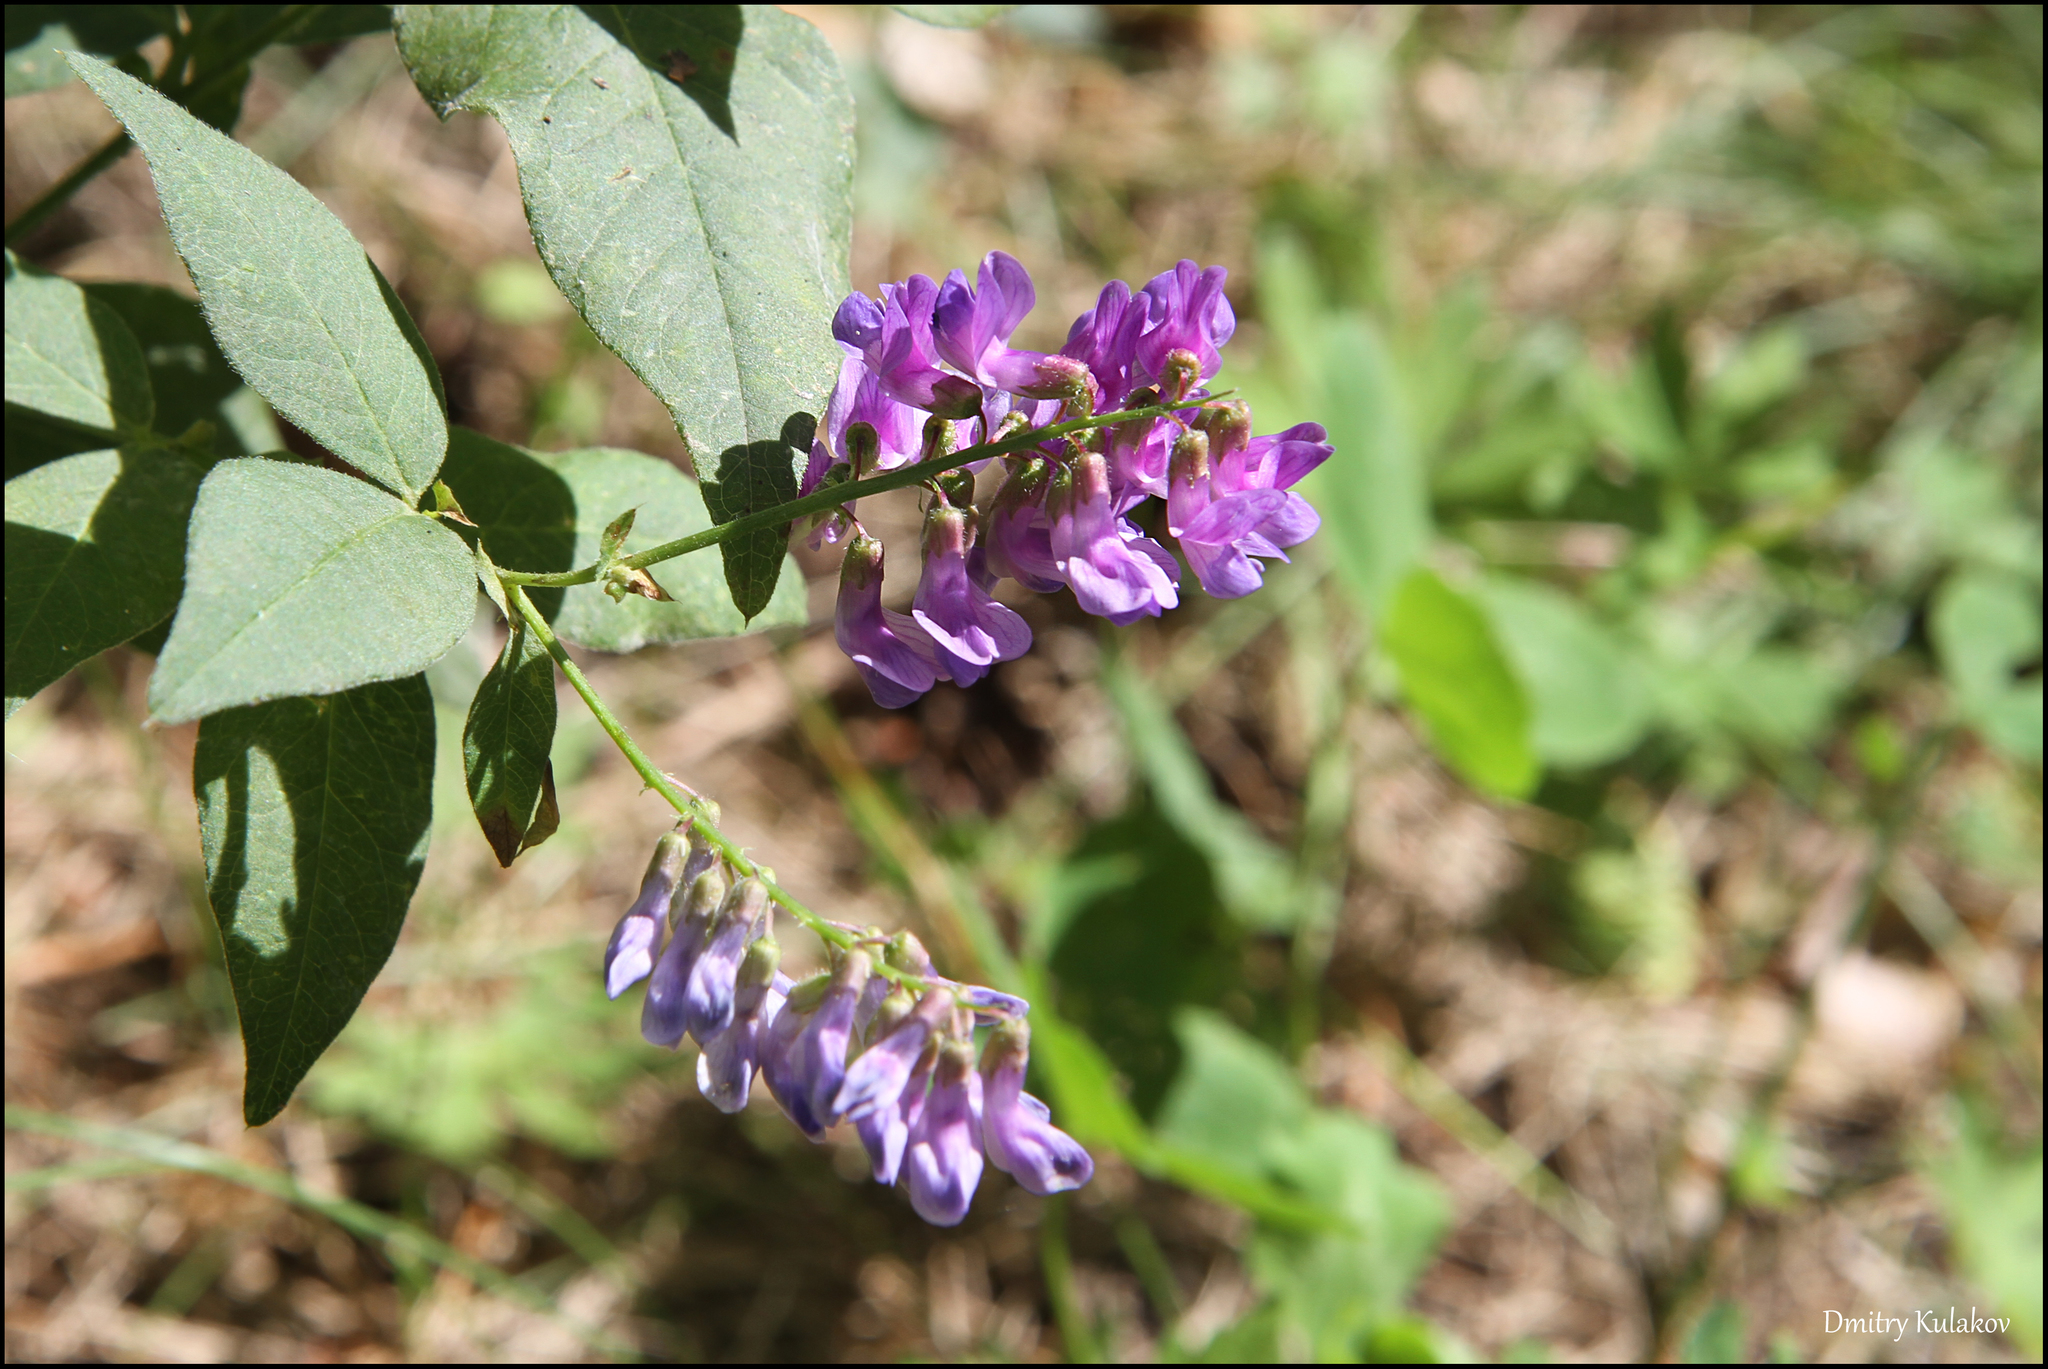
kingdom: Plantae
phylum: Tracheophyta
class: Magnoliopsida
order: Fabales
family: Fabaceae
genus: Vicia
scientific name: Vicia unijuga
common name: Two-leaf vetch
